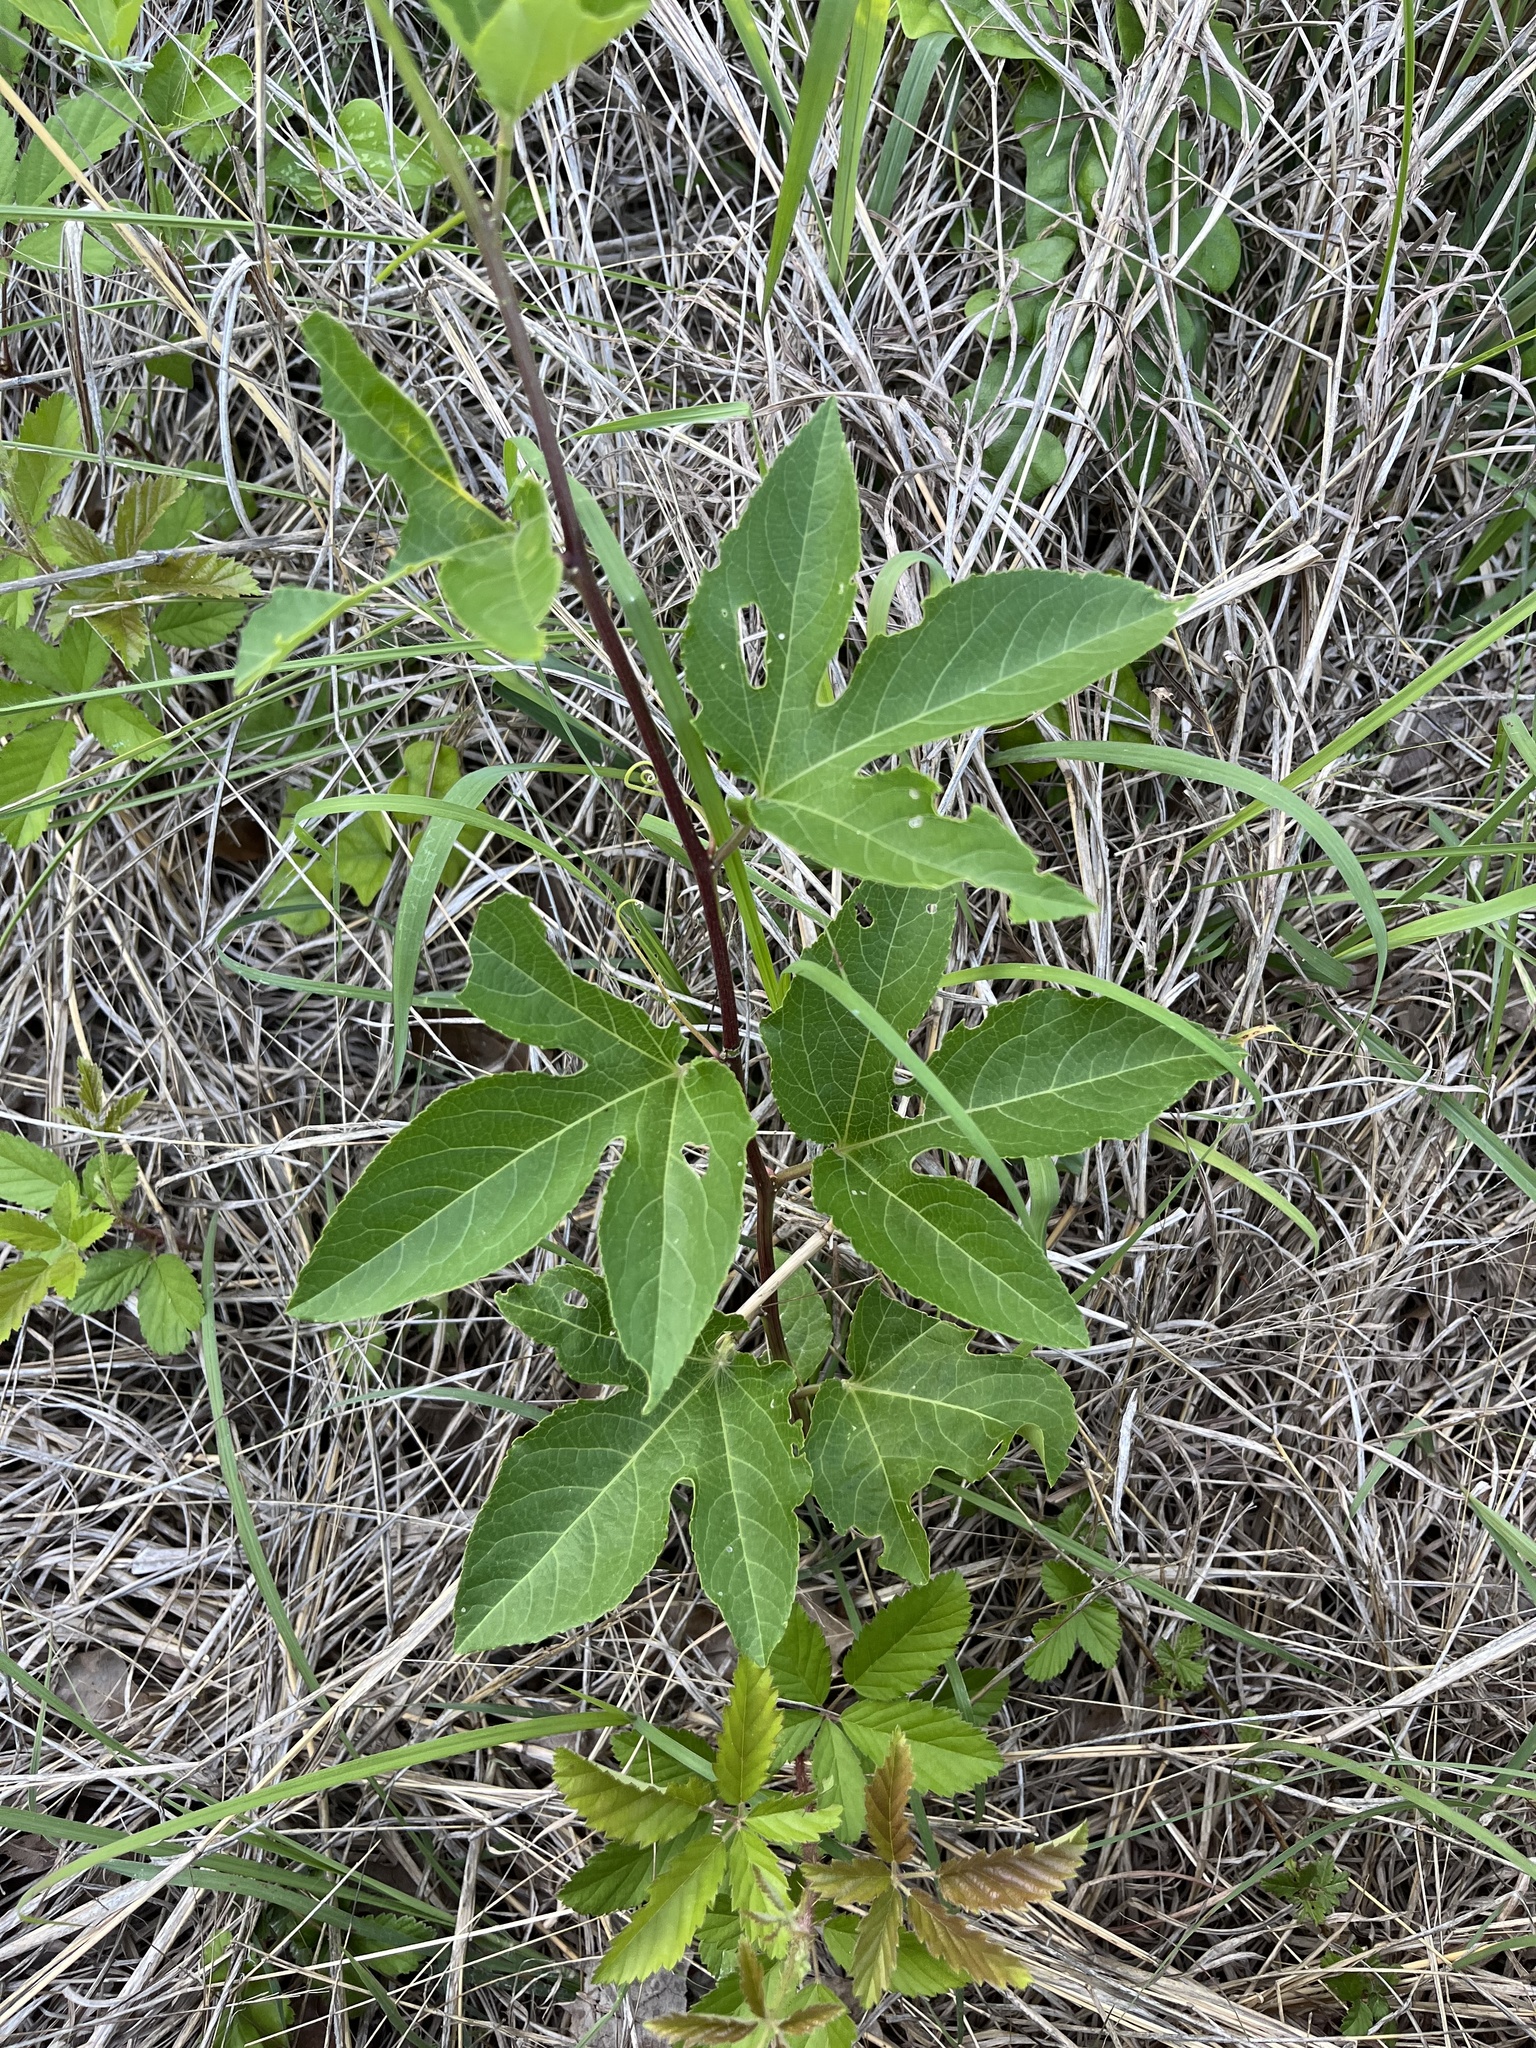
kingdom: Plantae
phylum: Tracheophyta
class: Magnoliopsida
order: Malpighiales
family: Passifloraceae
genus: Passiflora
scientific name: Passiflora incarnata
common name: Apricot-vine
